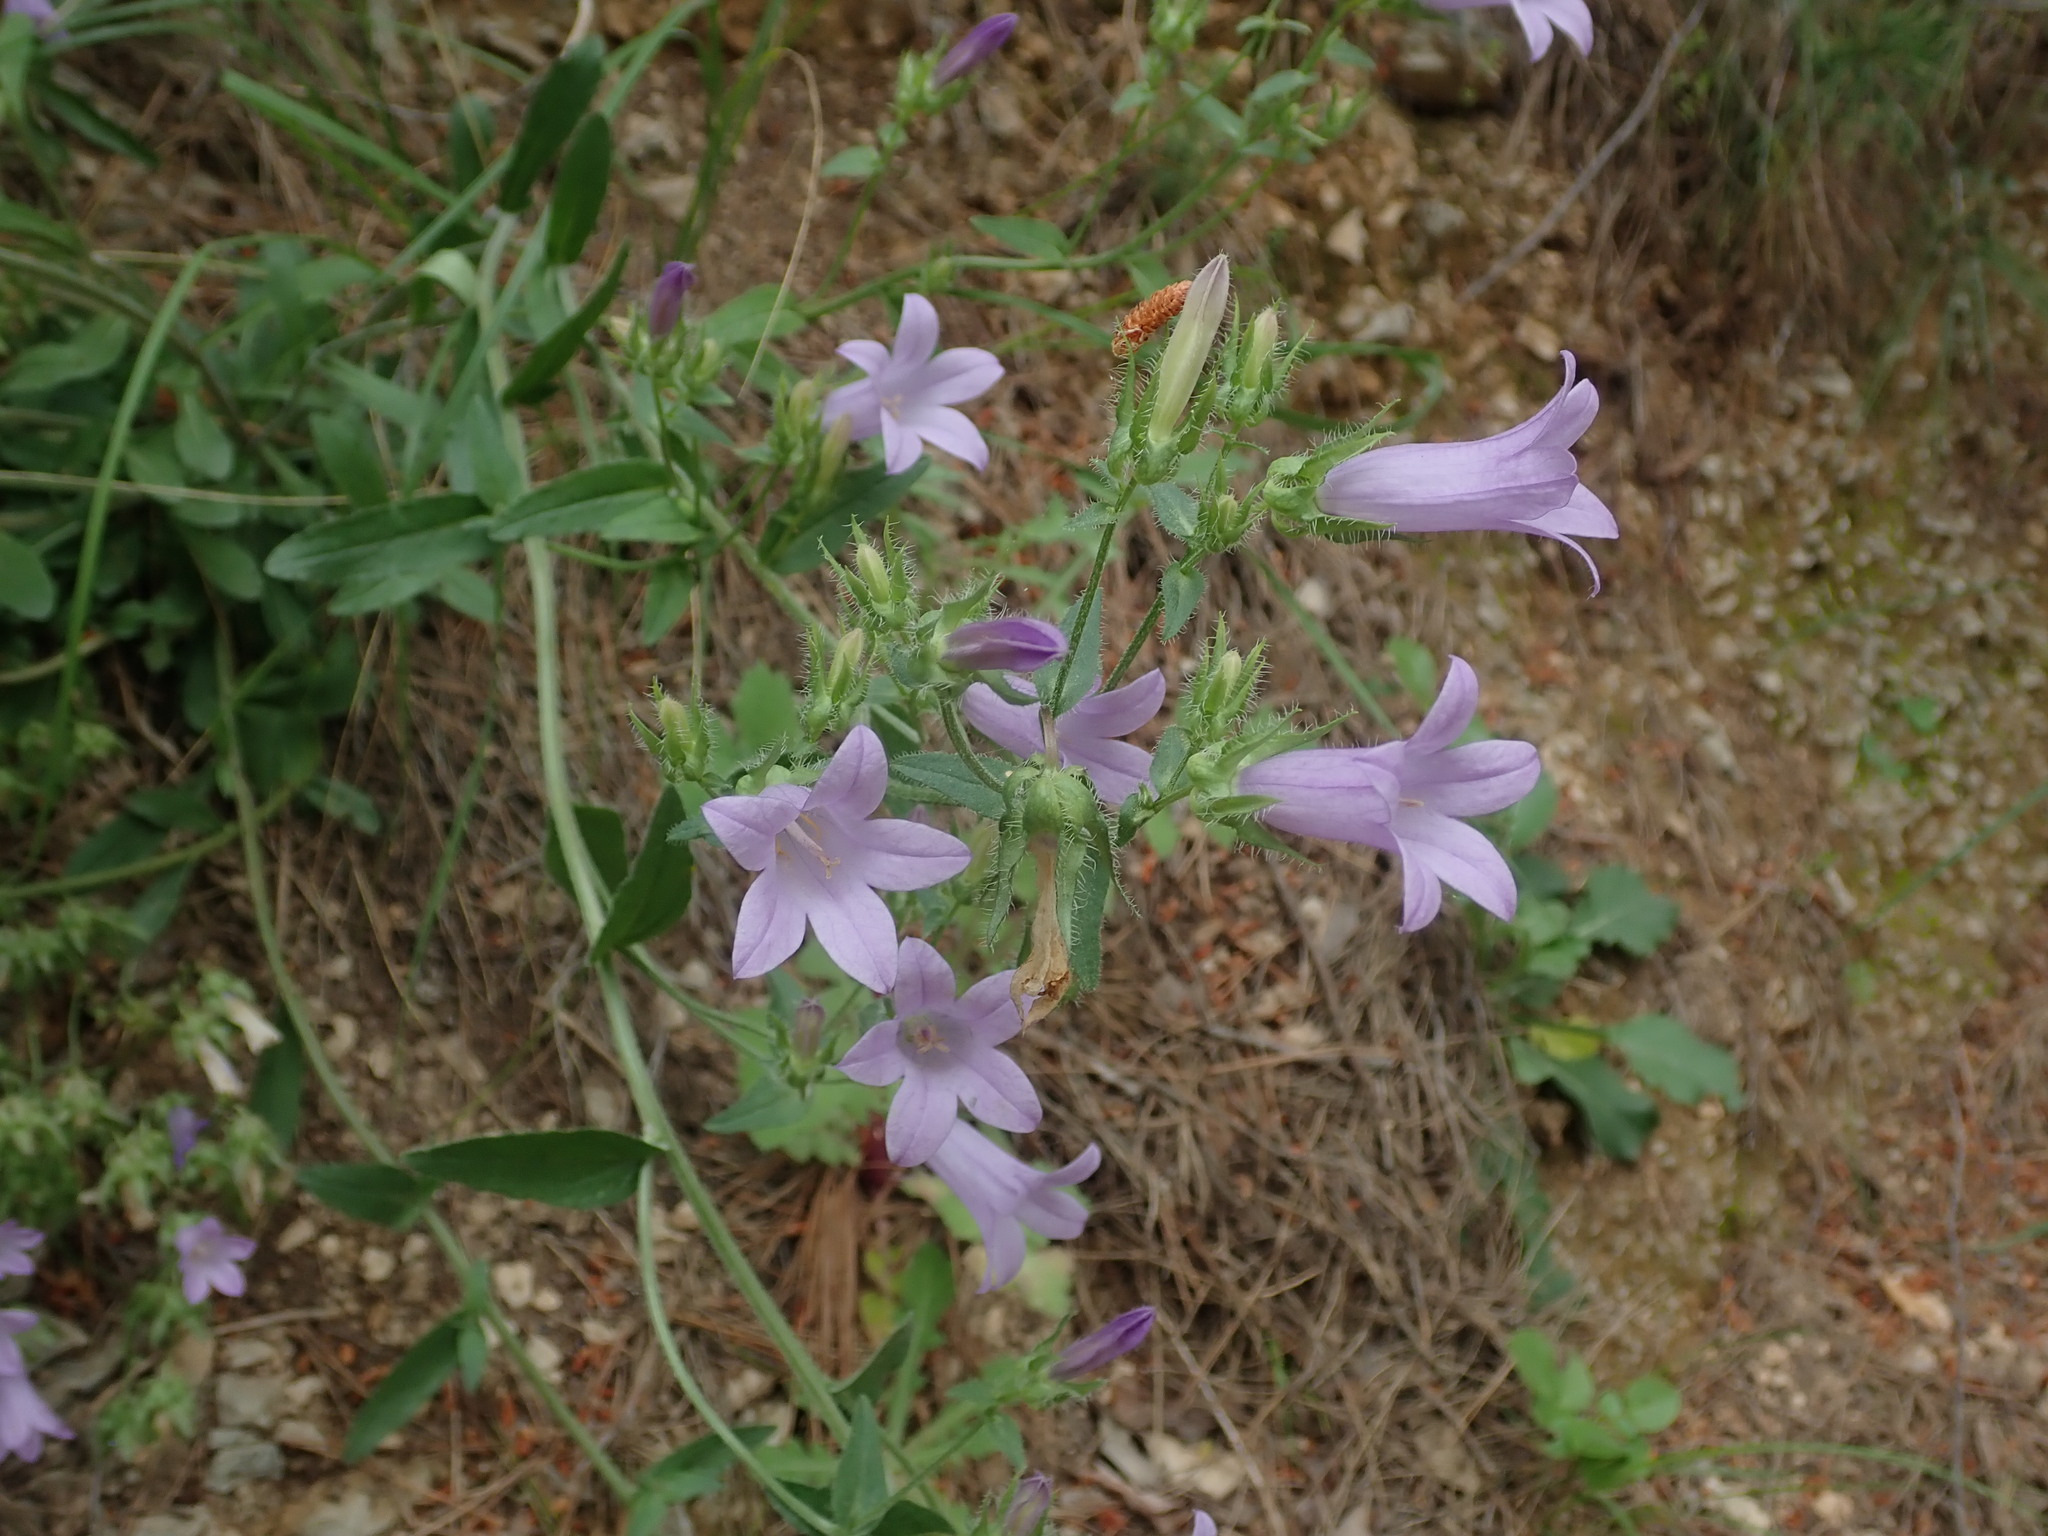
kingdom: Plantae
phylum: Tracheophyta
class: Magnoliopsida
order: Asterales
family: Campanulaceae
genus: Campanula
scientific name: Campanula sibirica
